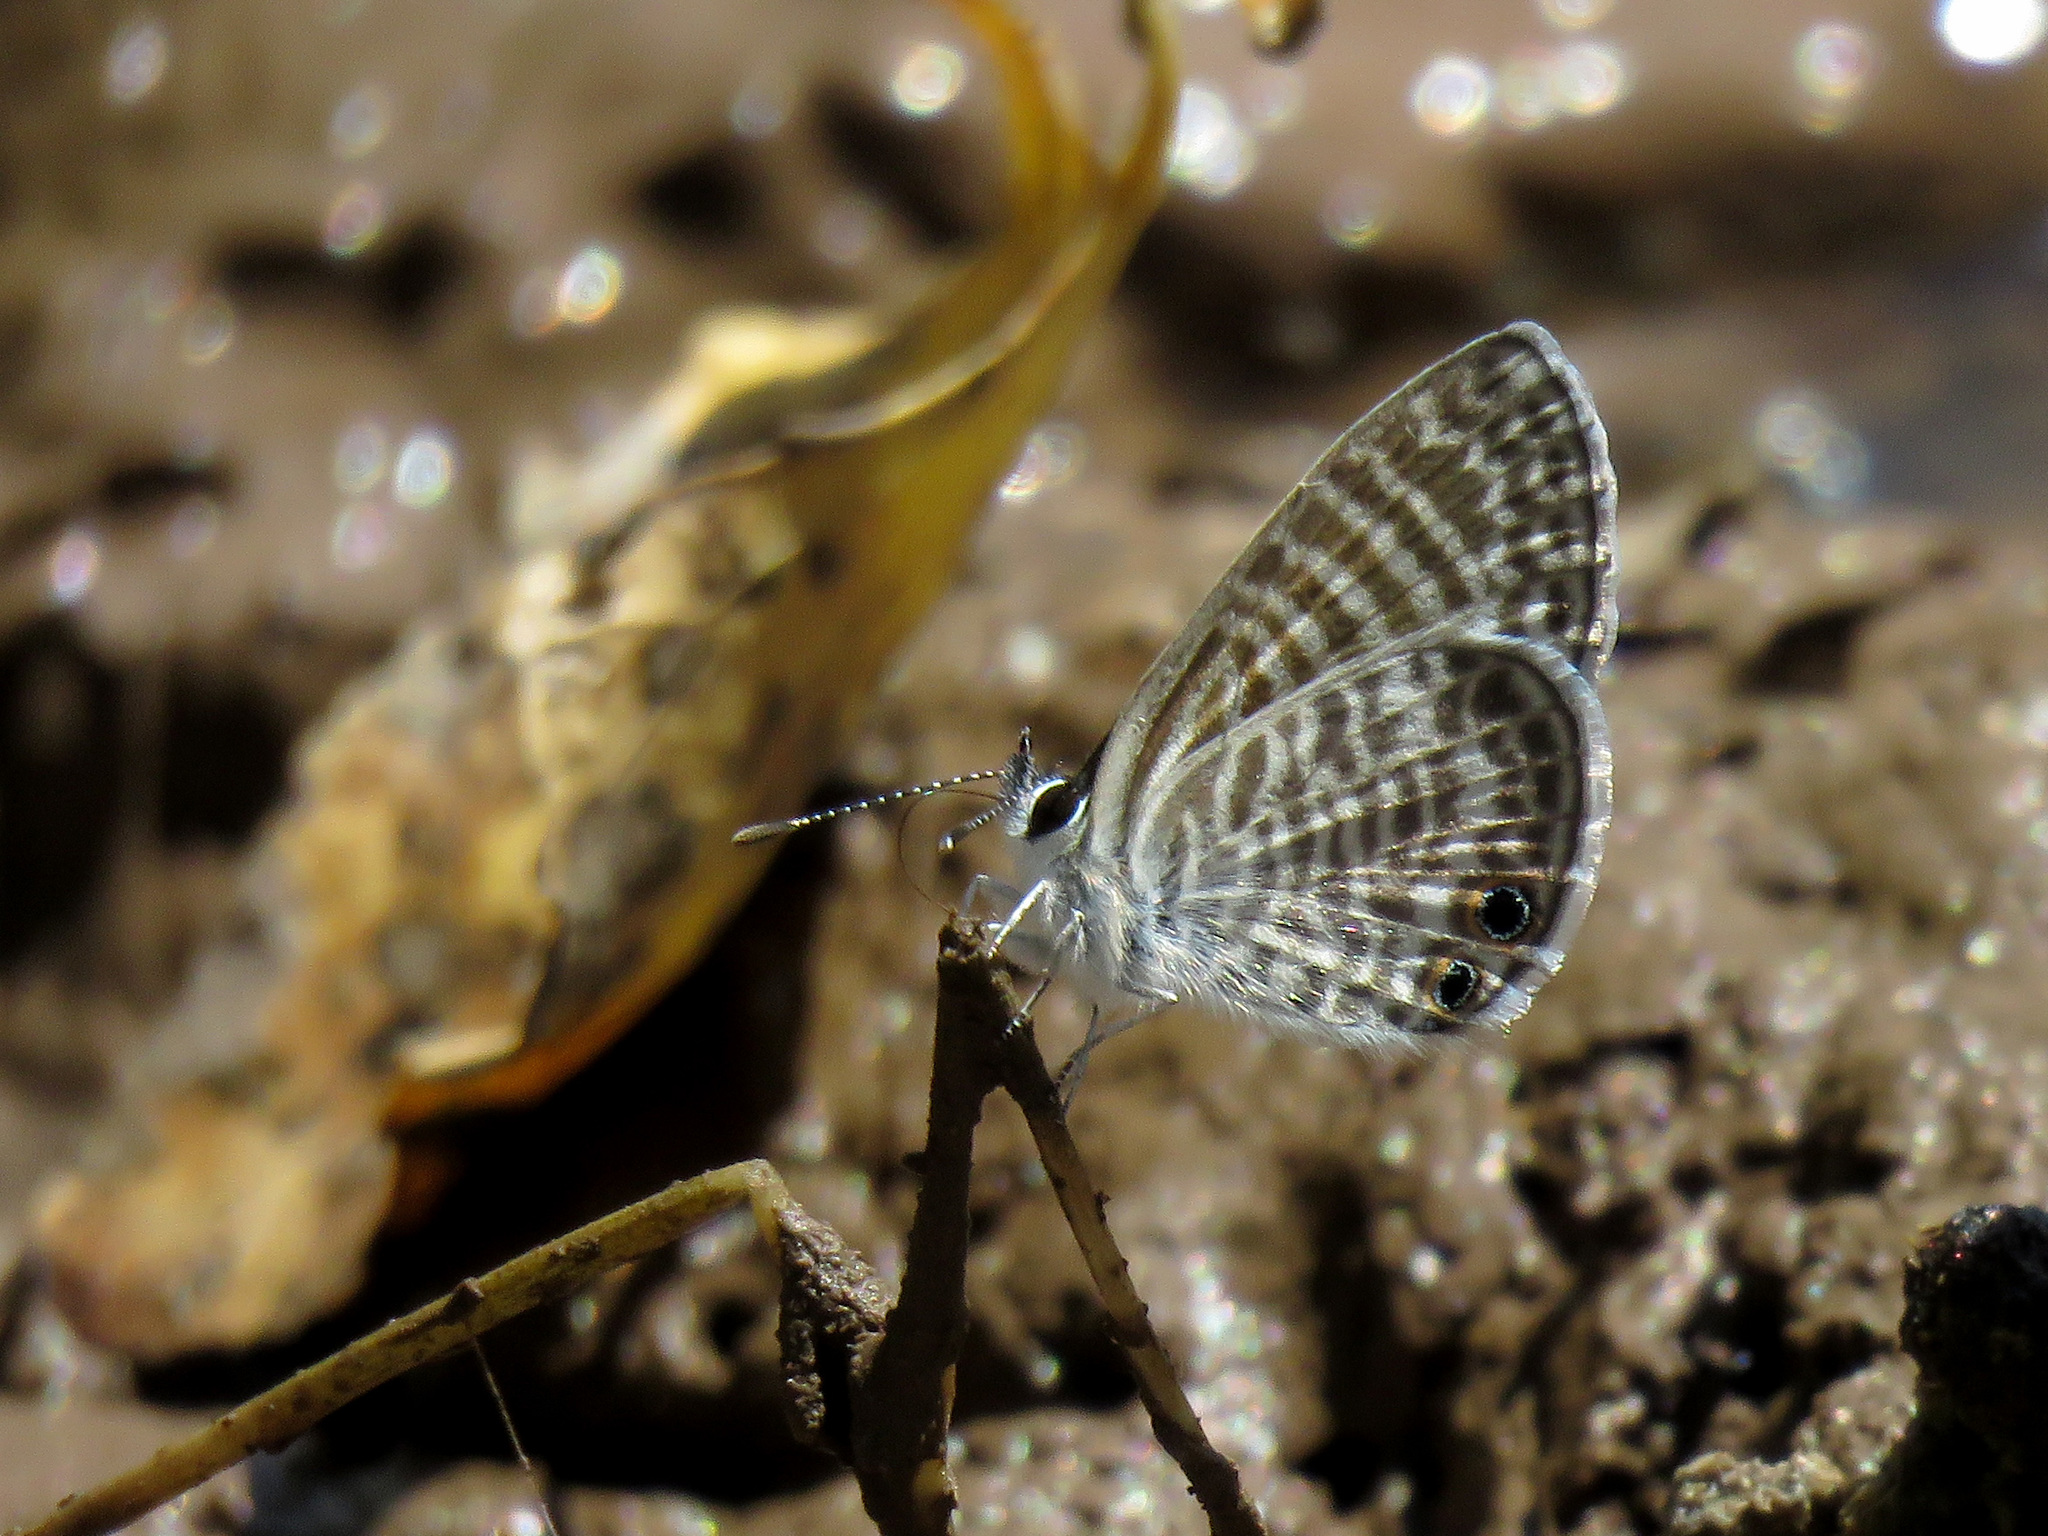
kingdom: Animalia
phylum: Arthropoda
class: Insecta
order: Lepidoptera
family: Lycaenidae
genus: Leptotes
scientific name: Leptotes marina
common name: Marine blue
